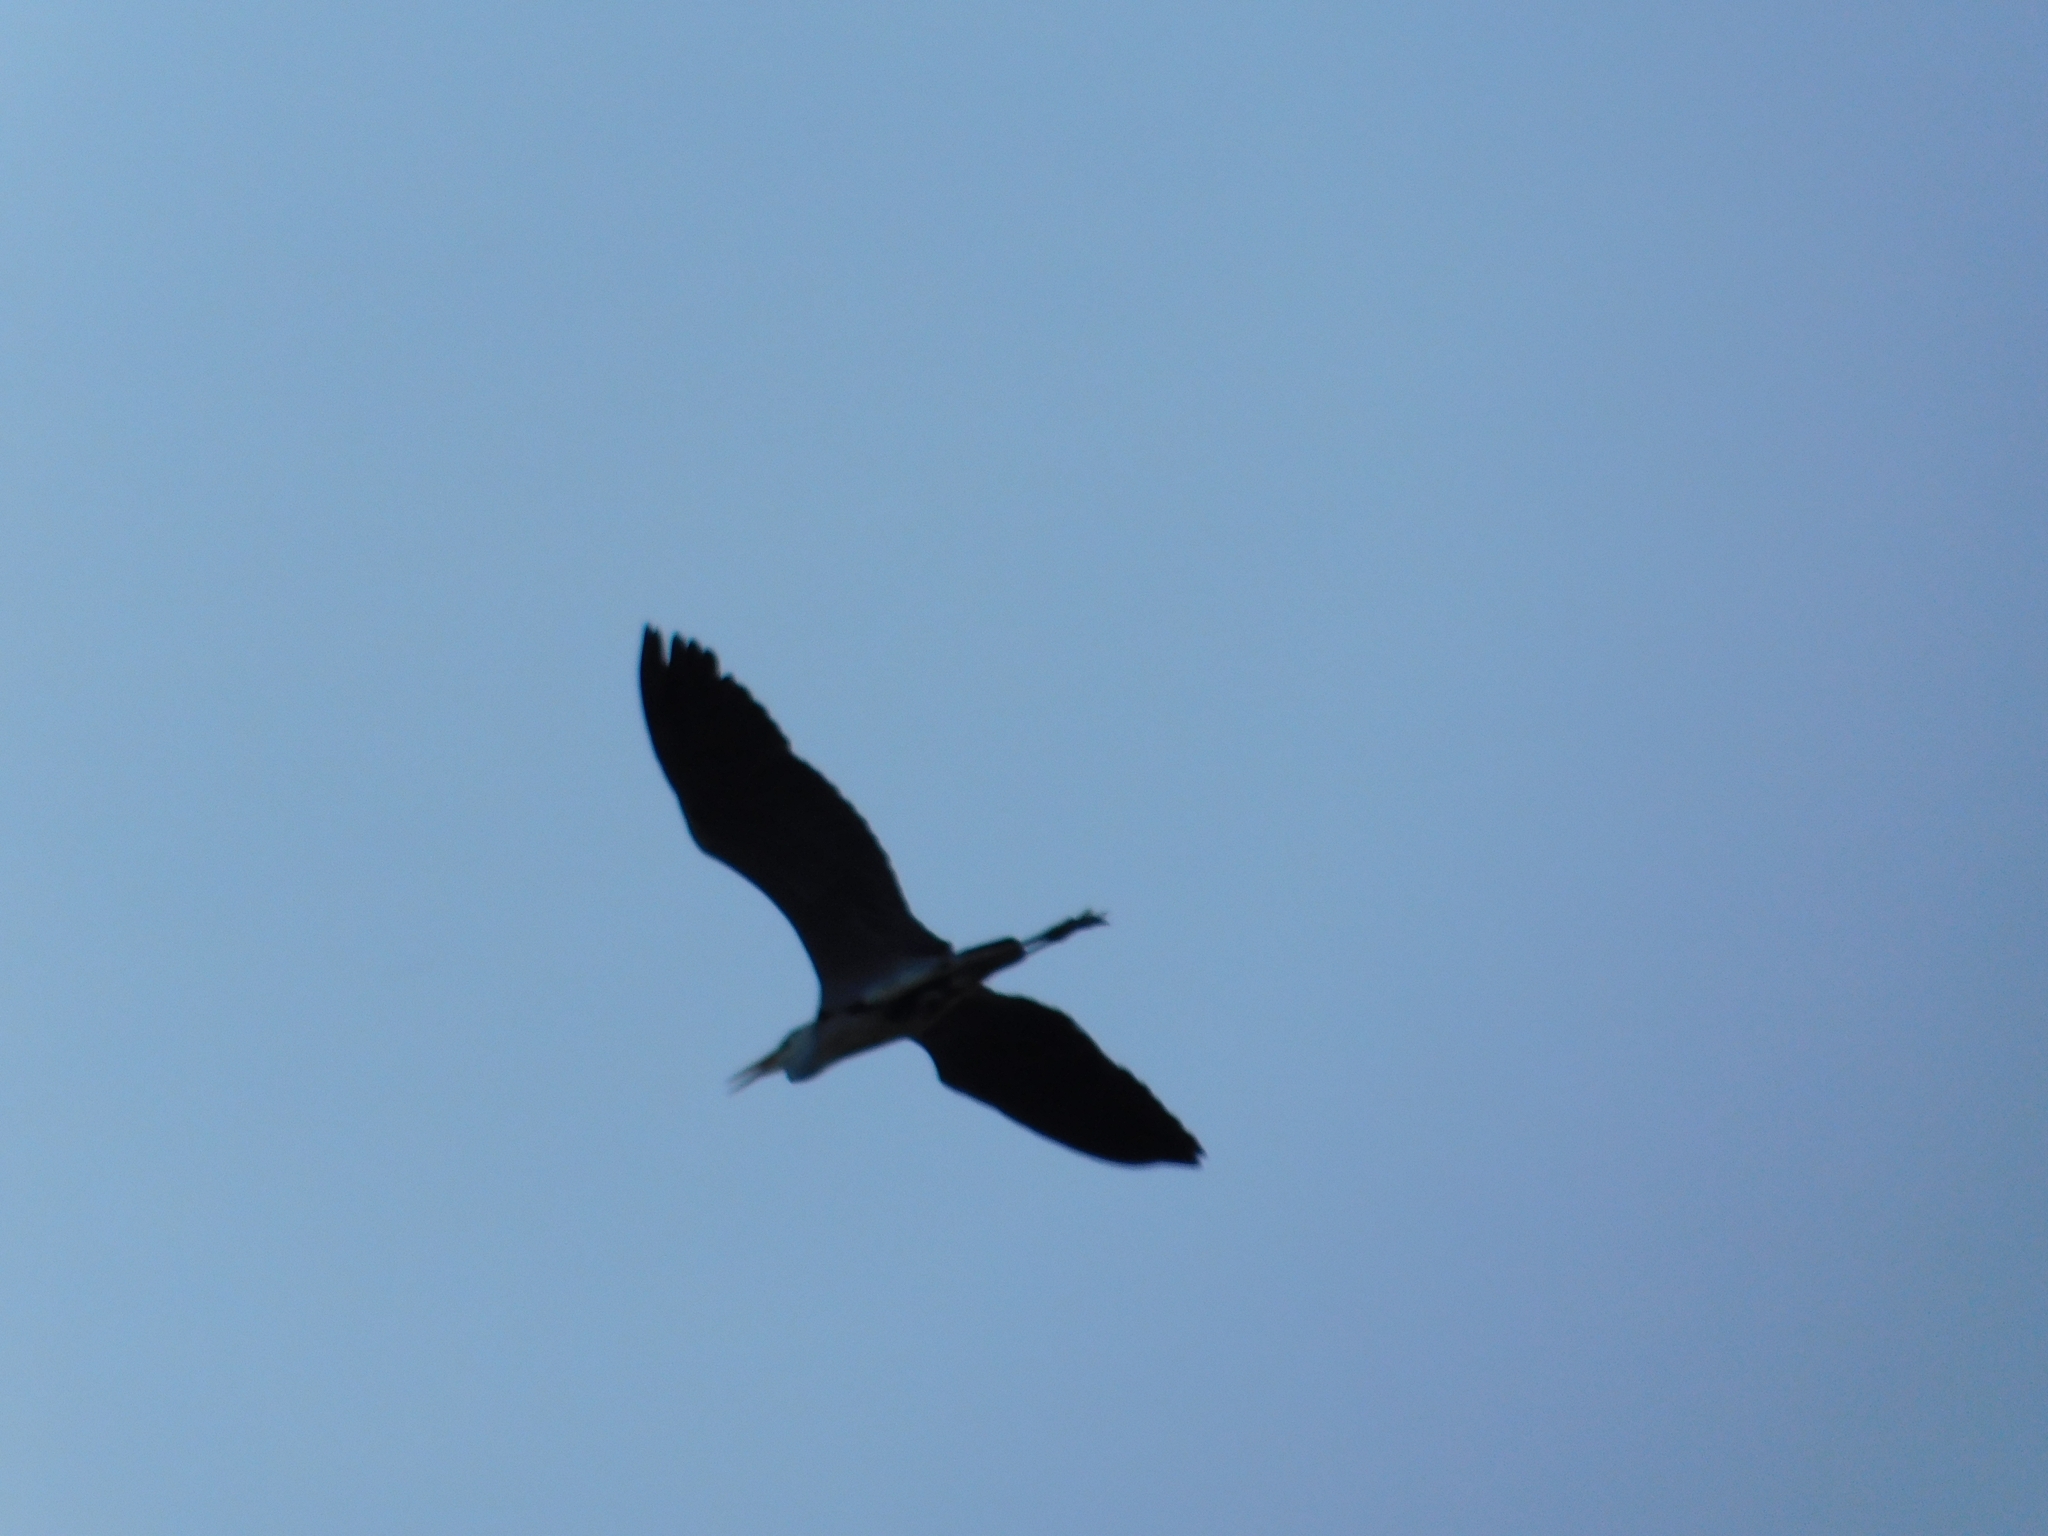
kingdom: Animalia
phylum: Chordata
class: Aves
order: Pelecaniformes
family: Ardeidae
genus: Ardea
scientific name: Ardea cinerea
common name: Grey heron
